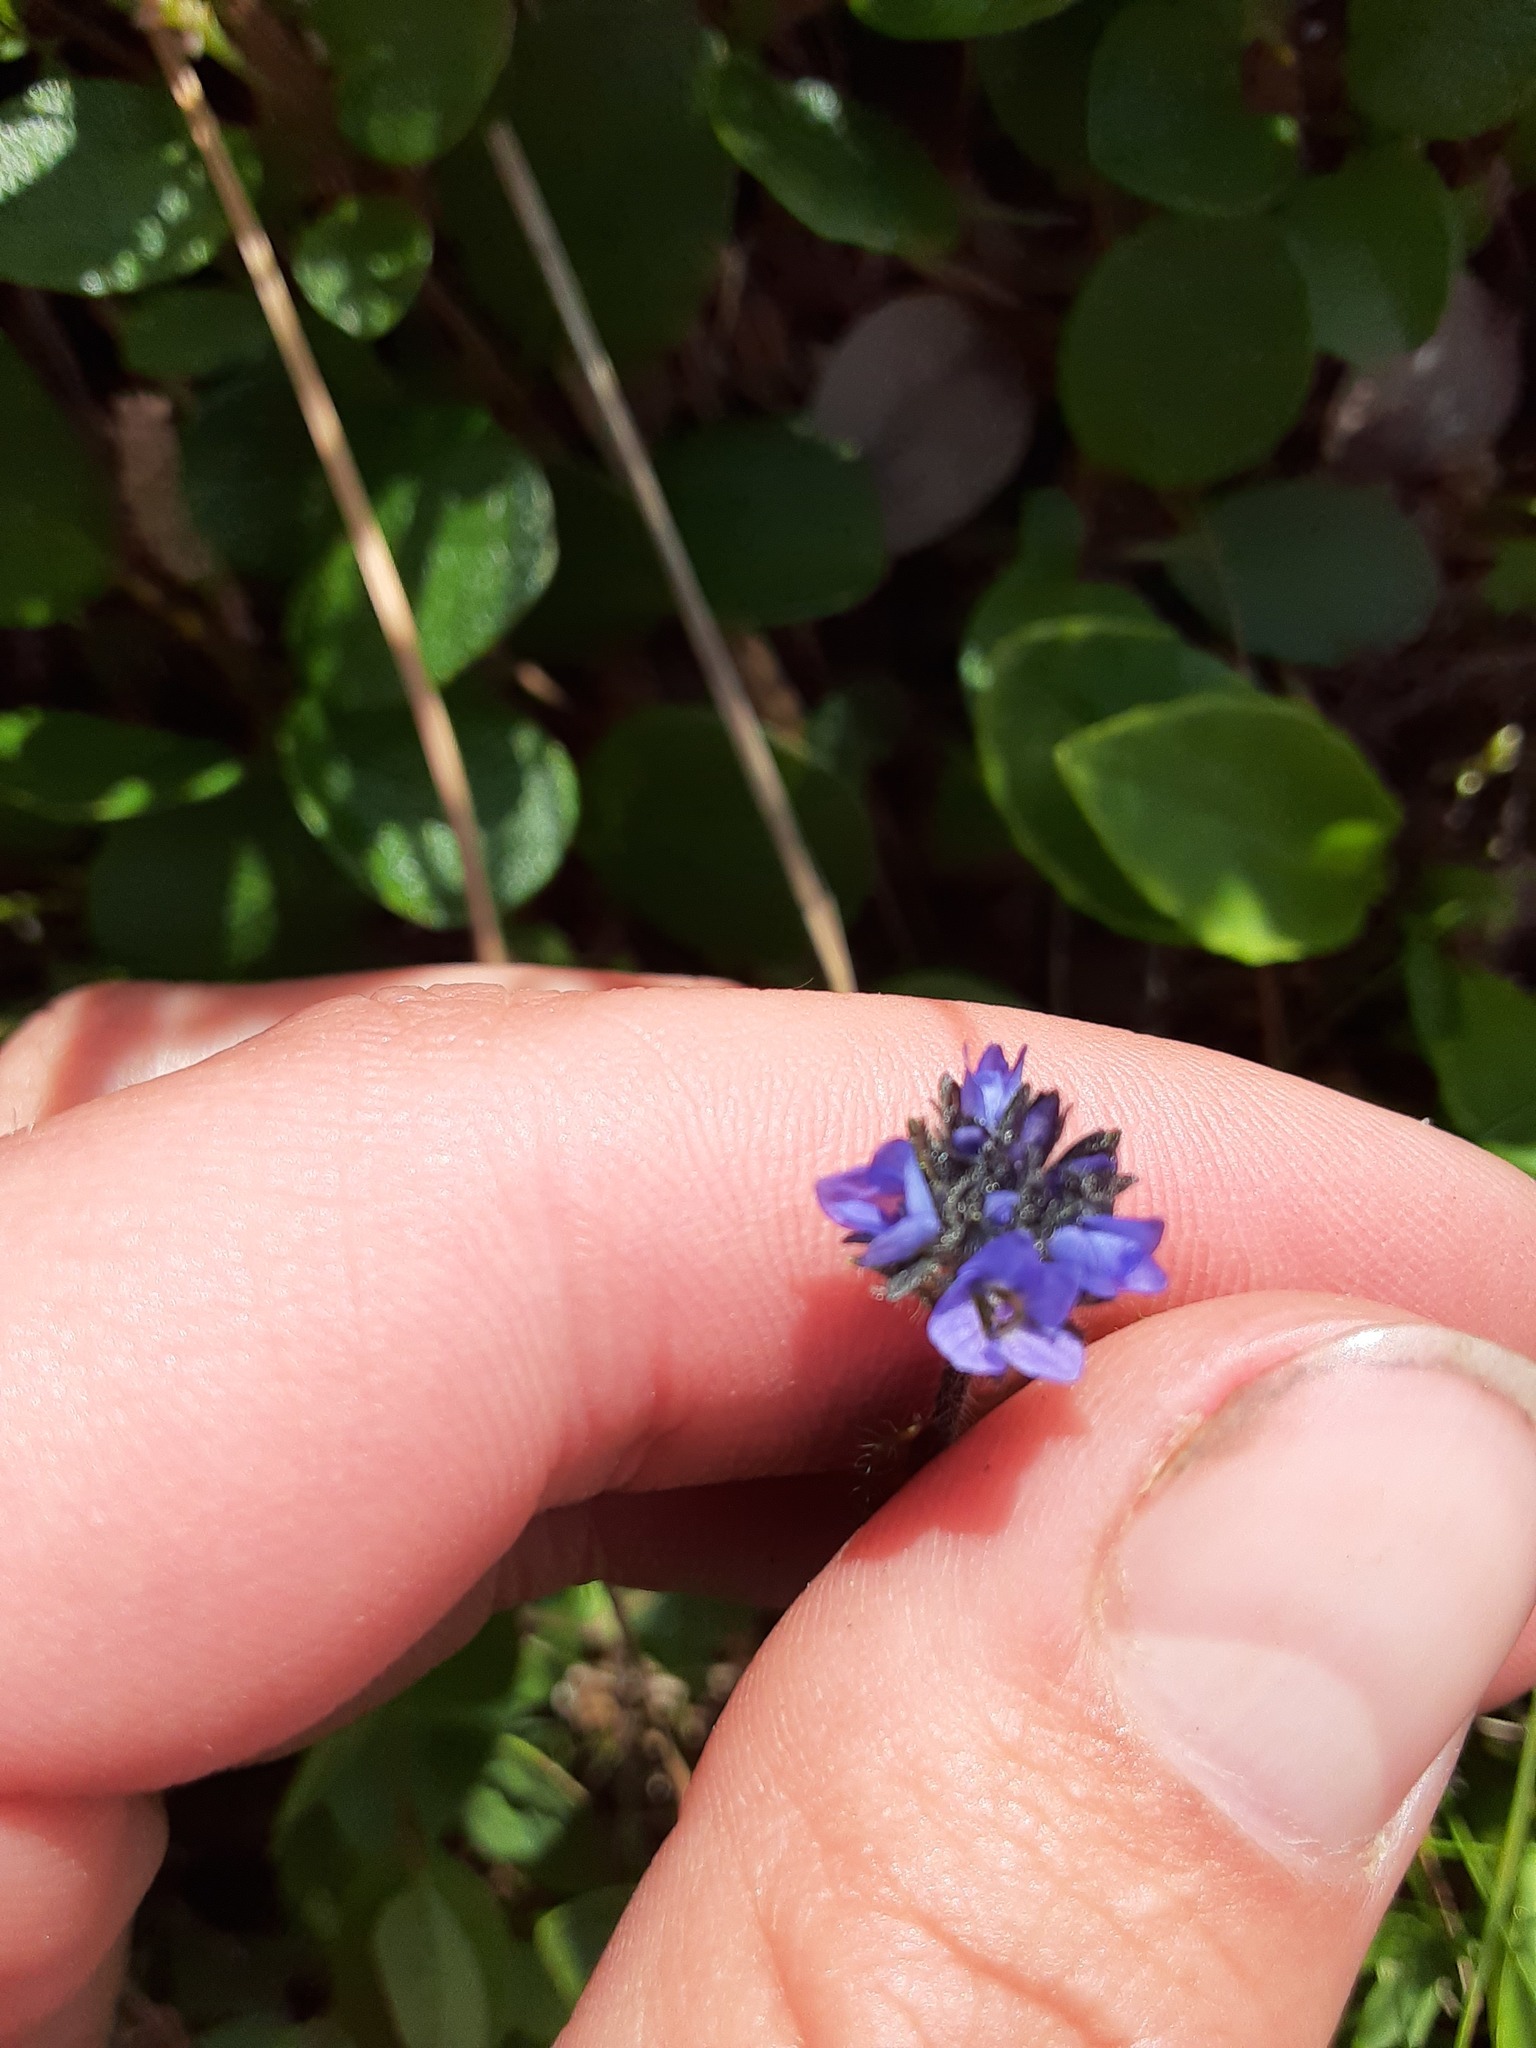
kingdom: Plantae
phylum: Tracheophyta
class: Magnoliopsida
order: Lamiales
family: Plantaginaceae
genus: Veronica
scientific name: Veronica wormskjoldii
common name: American alpine speedwell
